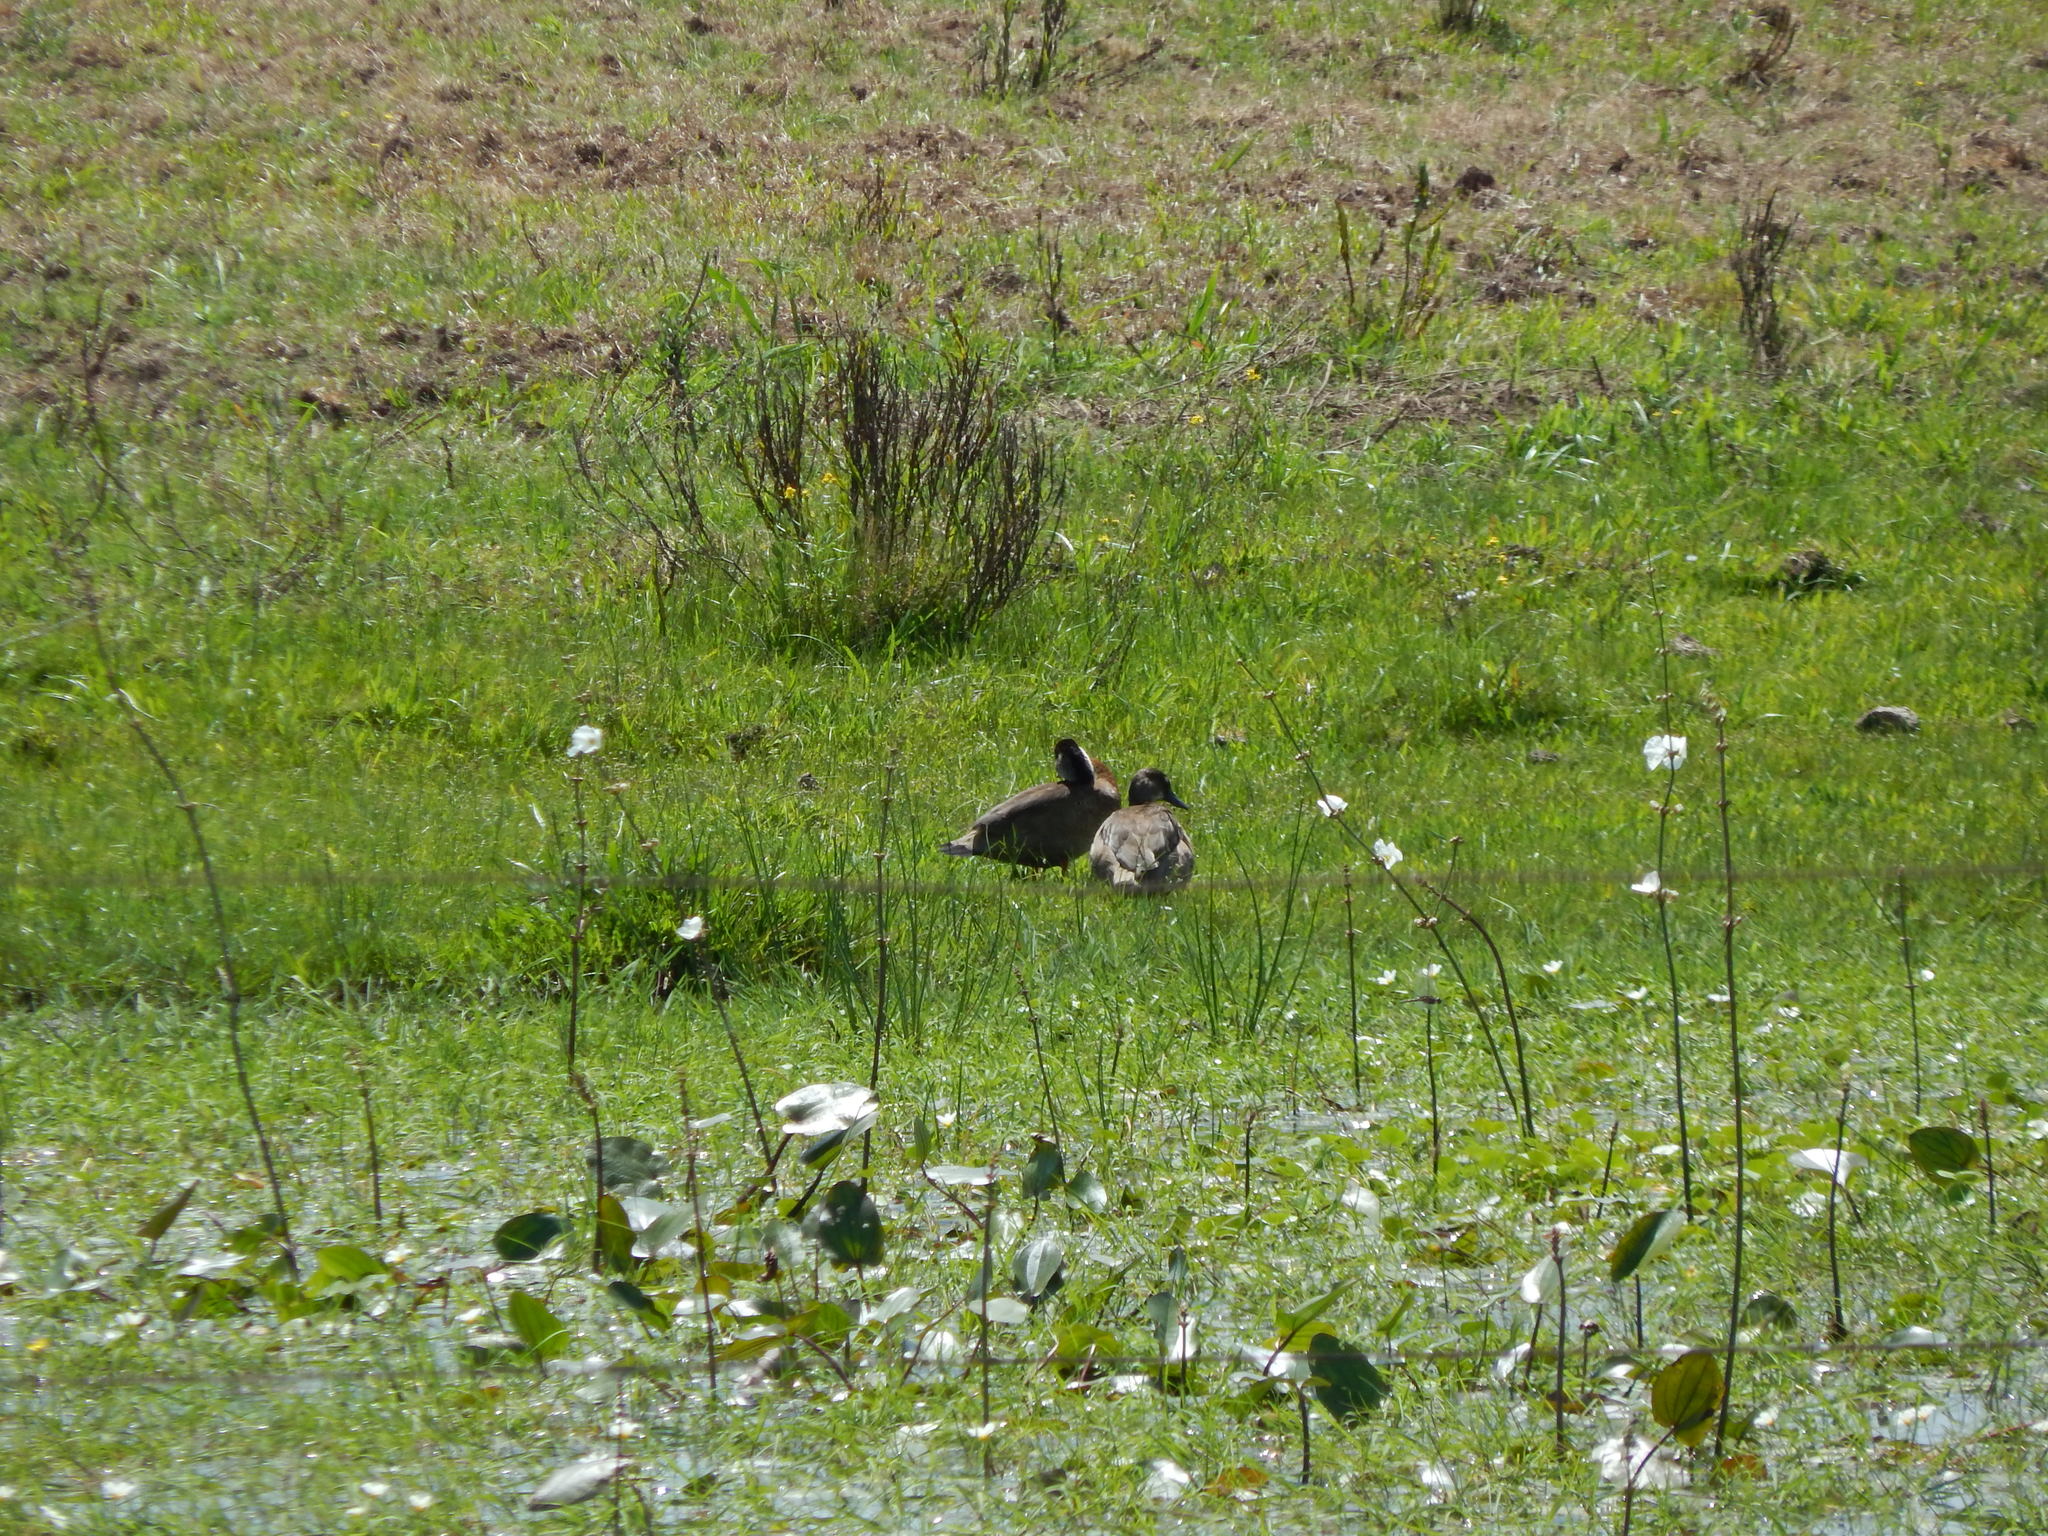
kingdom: Animalia
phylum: Chordata
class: Aves
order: Anseriformes
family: Anatidae
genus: Amazonetta
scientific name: Amazonetta brasiliensis
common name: Brazilian teal
